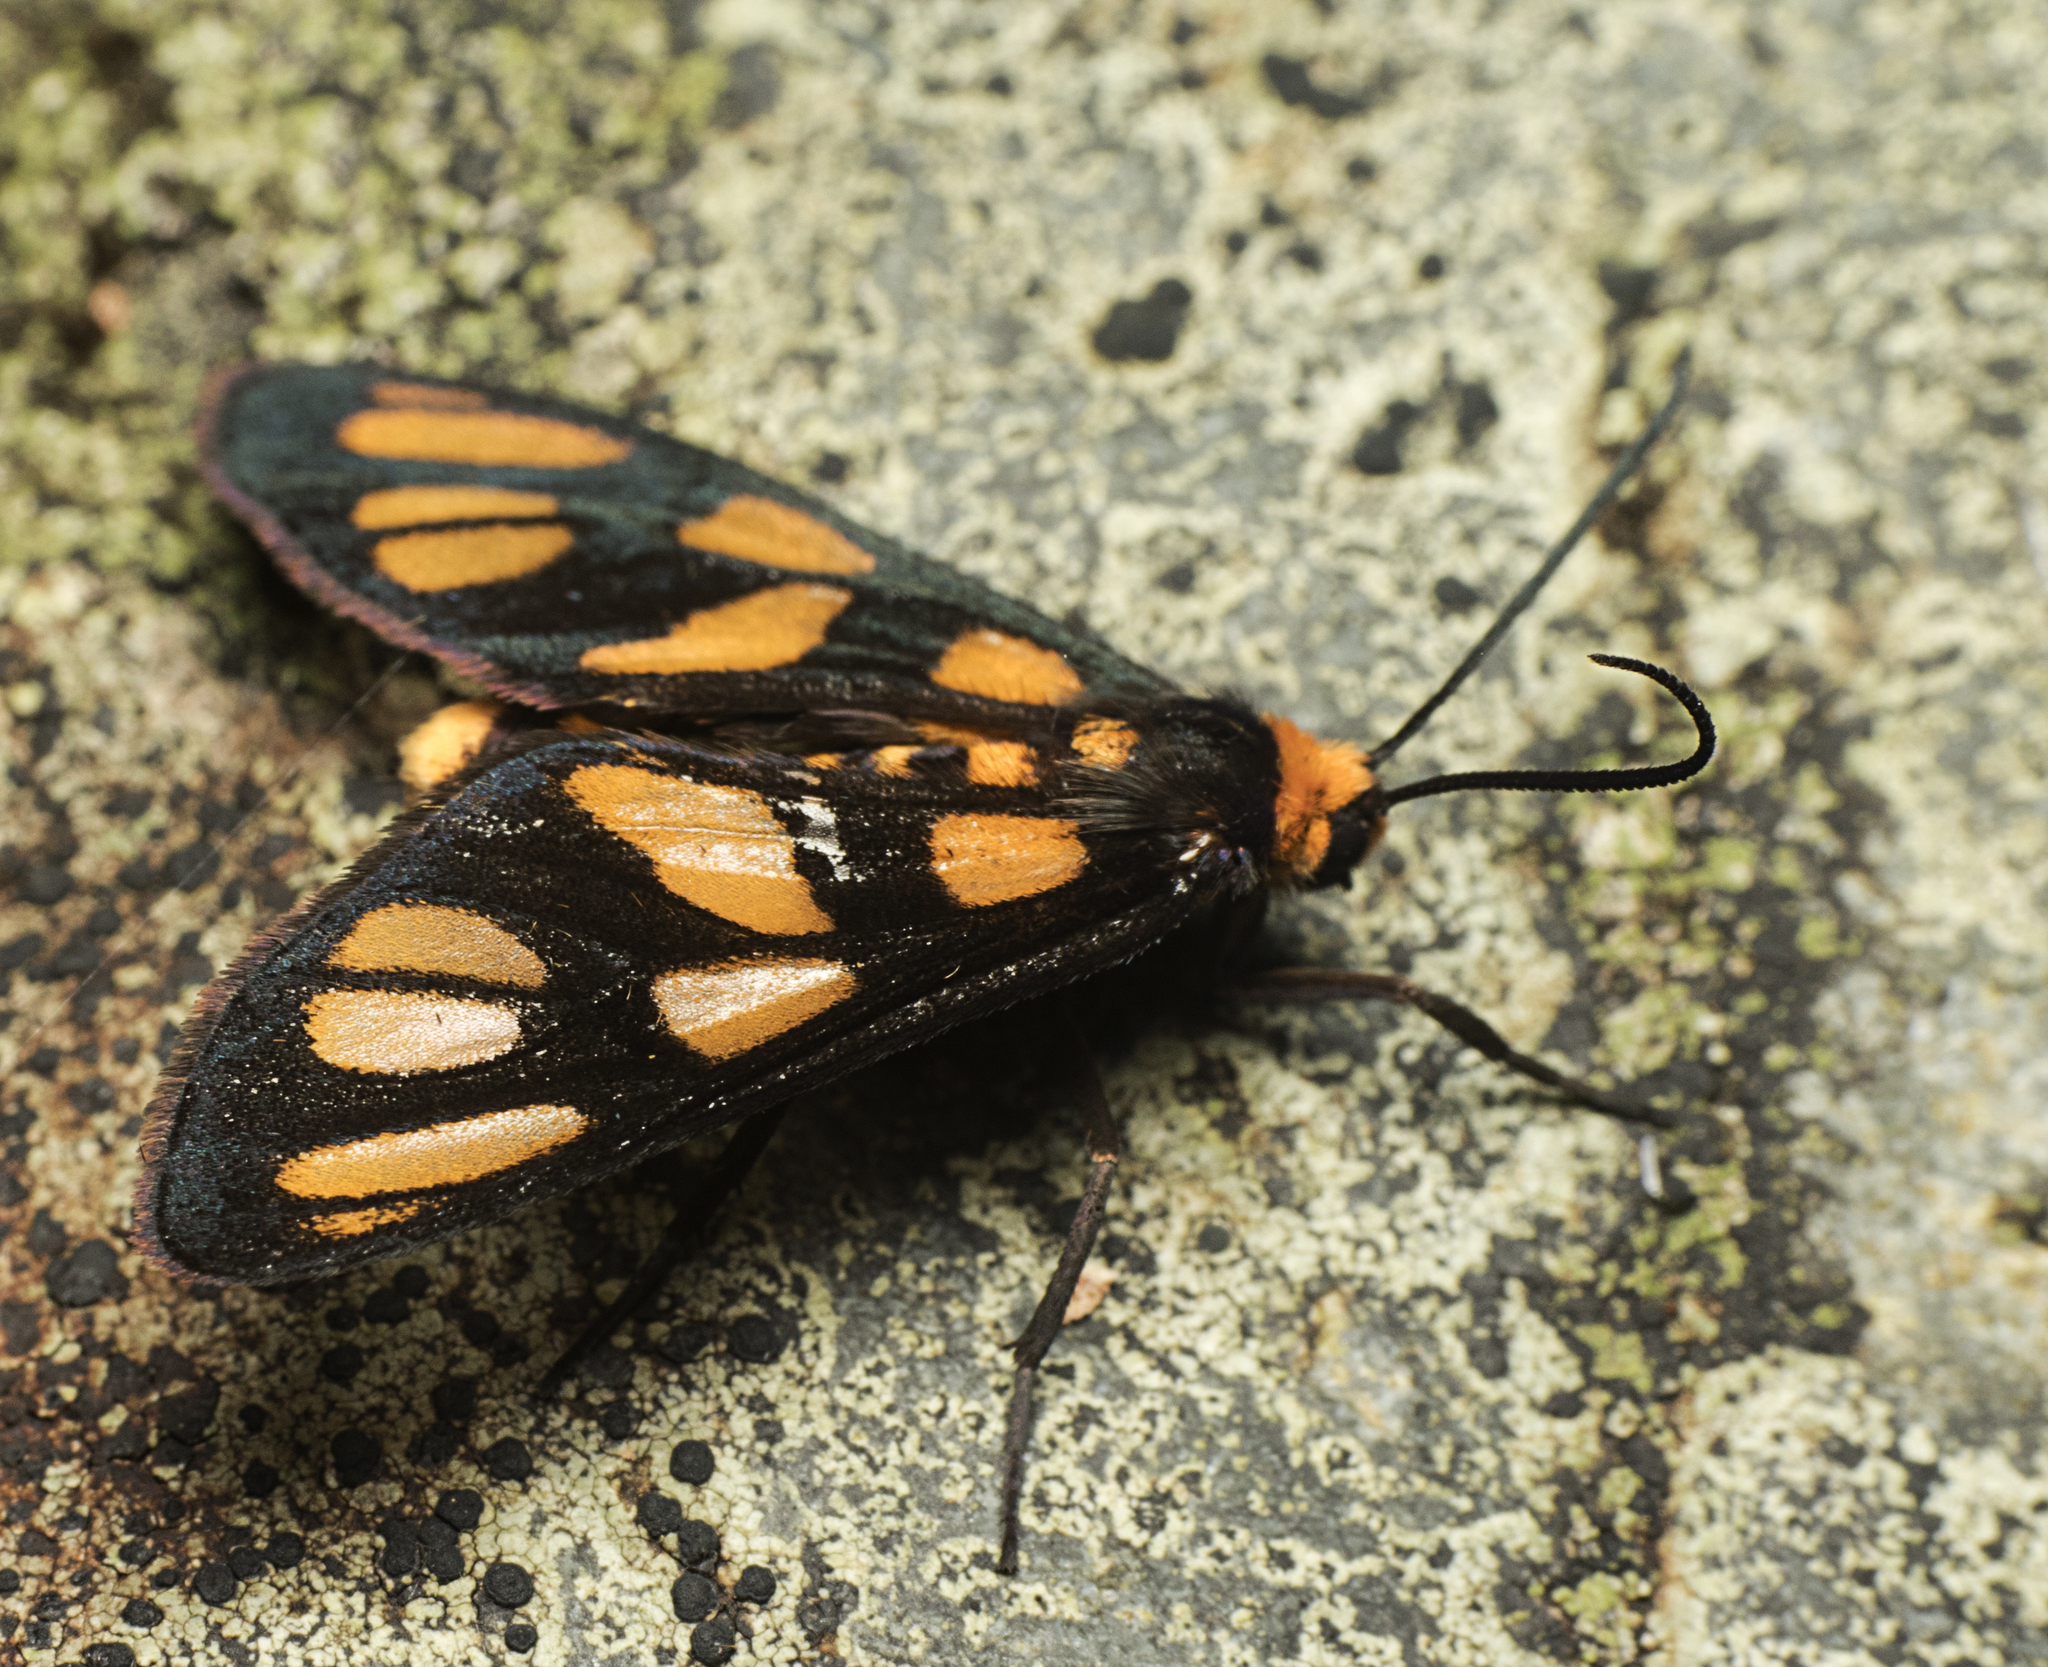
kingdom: Animalia
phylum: Arthropoda
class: Insecta
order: Lepidoptera
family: Erebidae
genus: Amata
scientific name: Amata aperta
